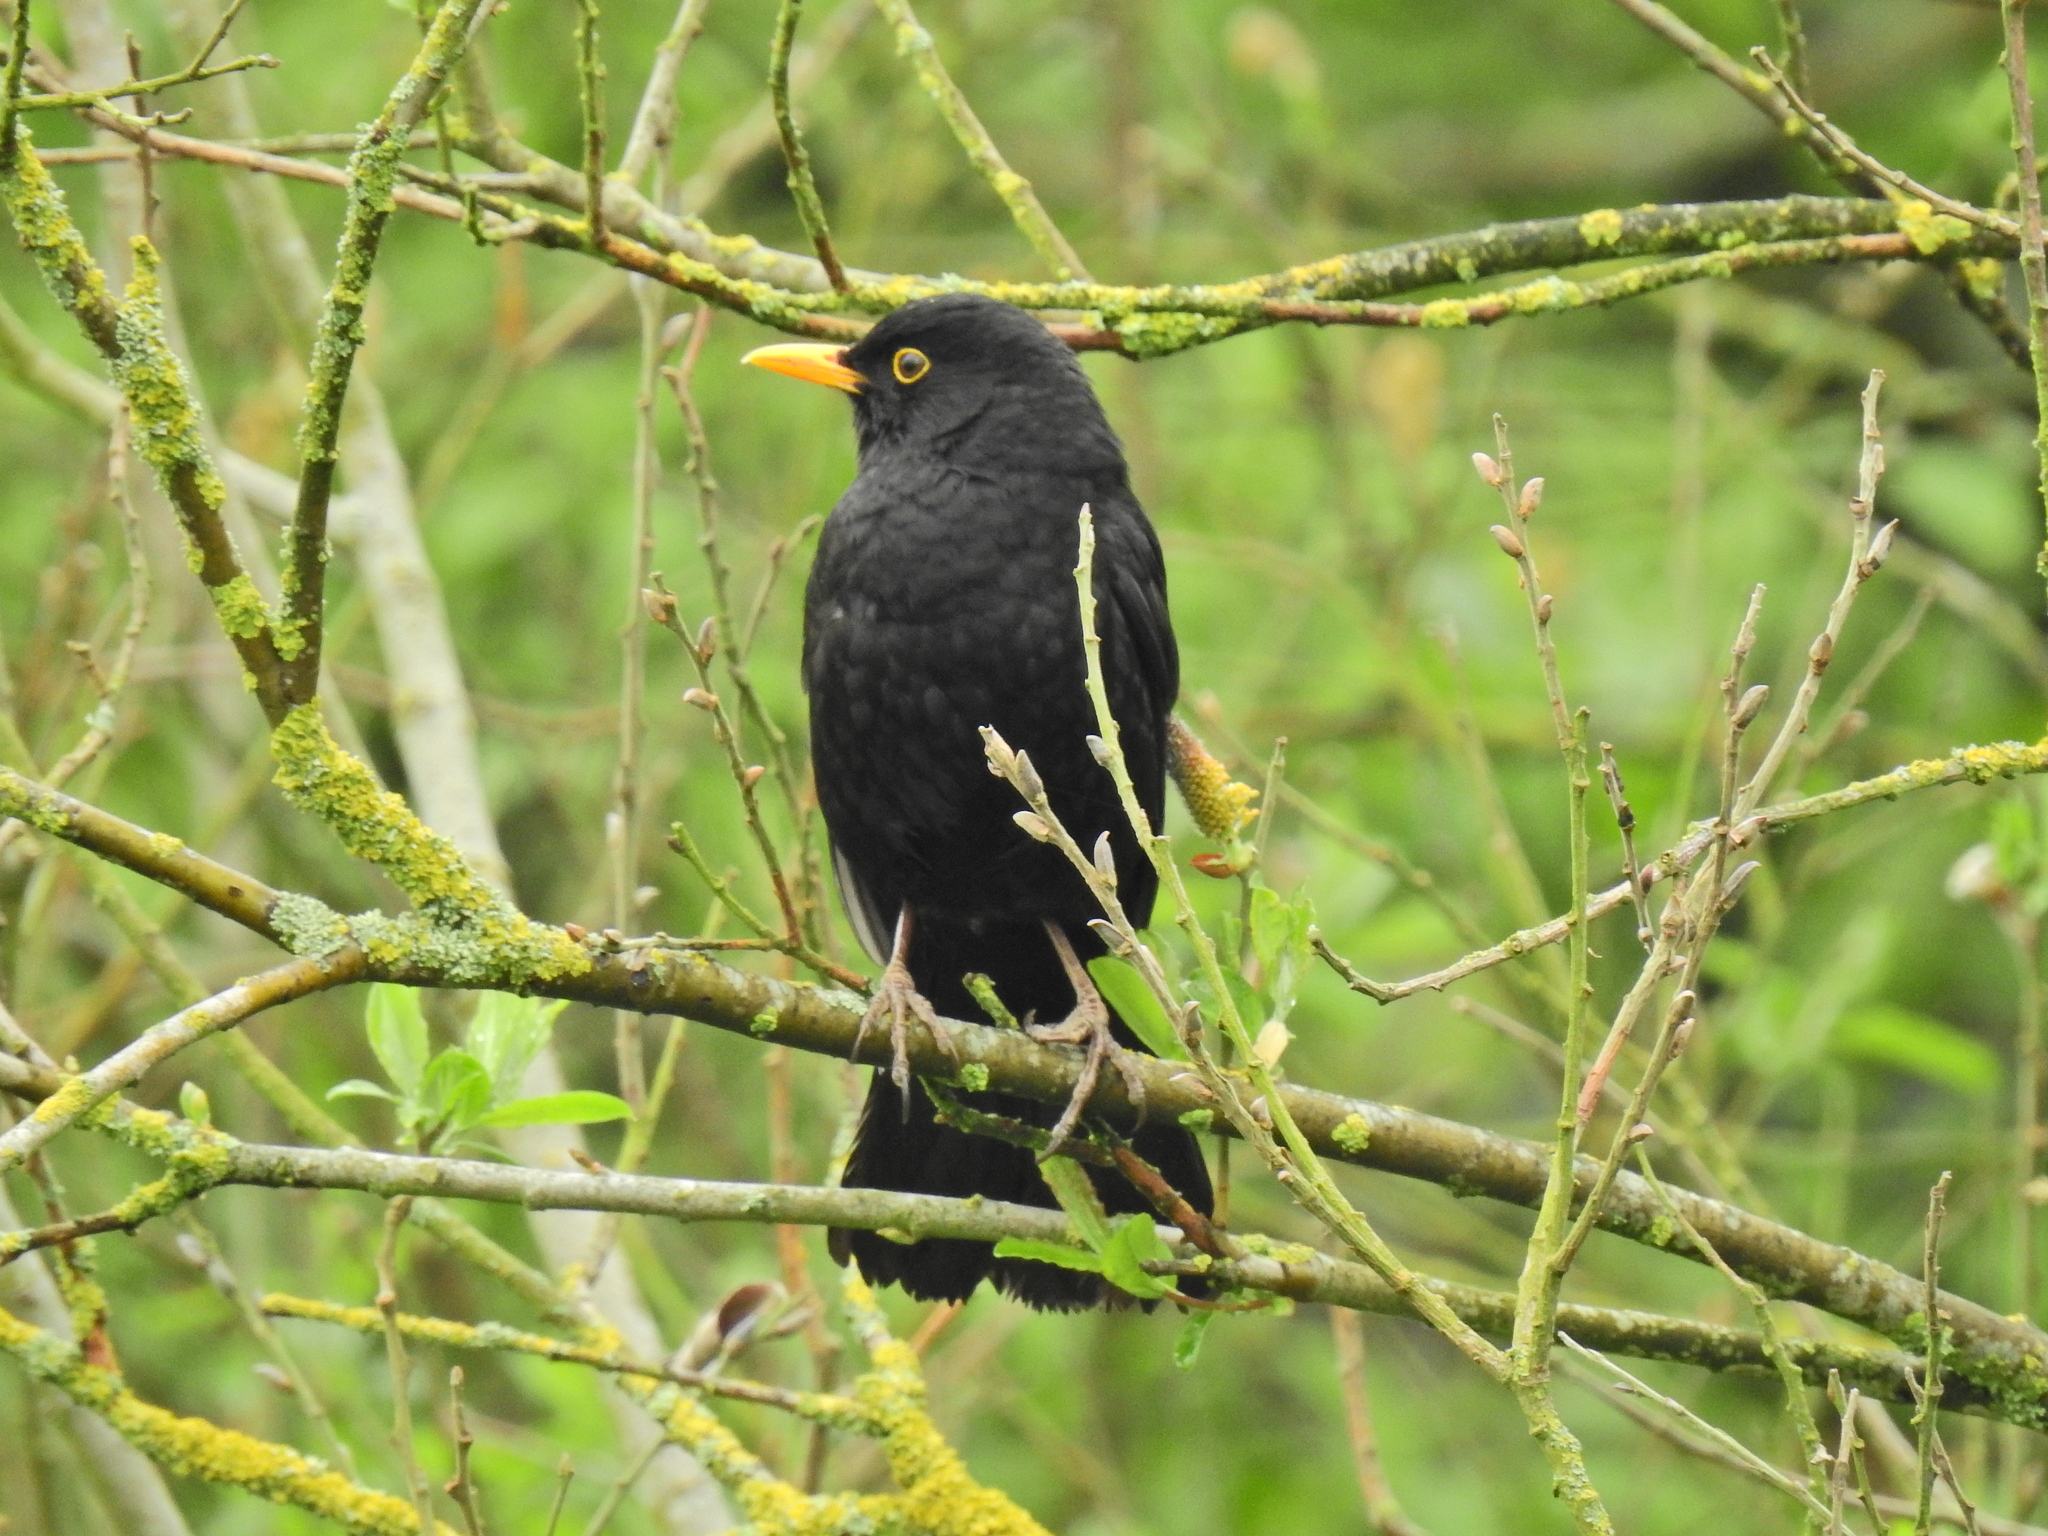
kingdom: Animalia
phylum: Chordata
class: Aves
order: Passeriformes
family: Turdidae
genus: Turdus
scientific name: Turdus merula
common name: Common blackbird
